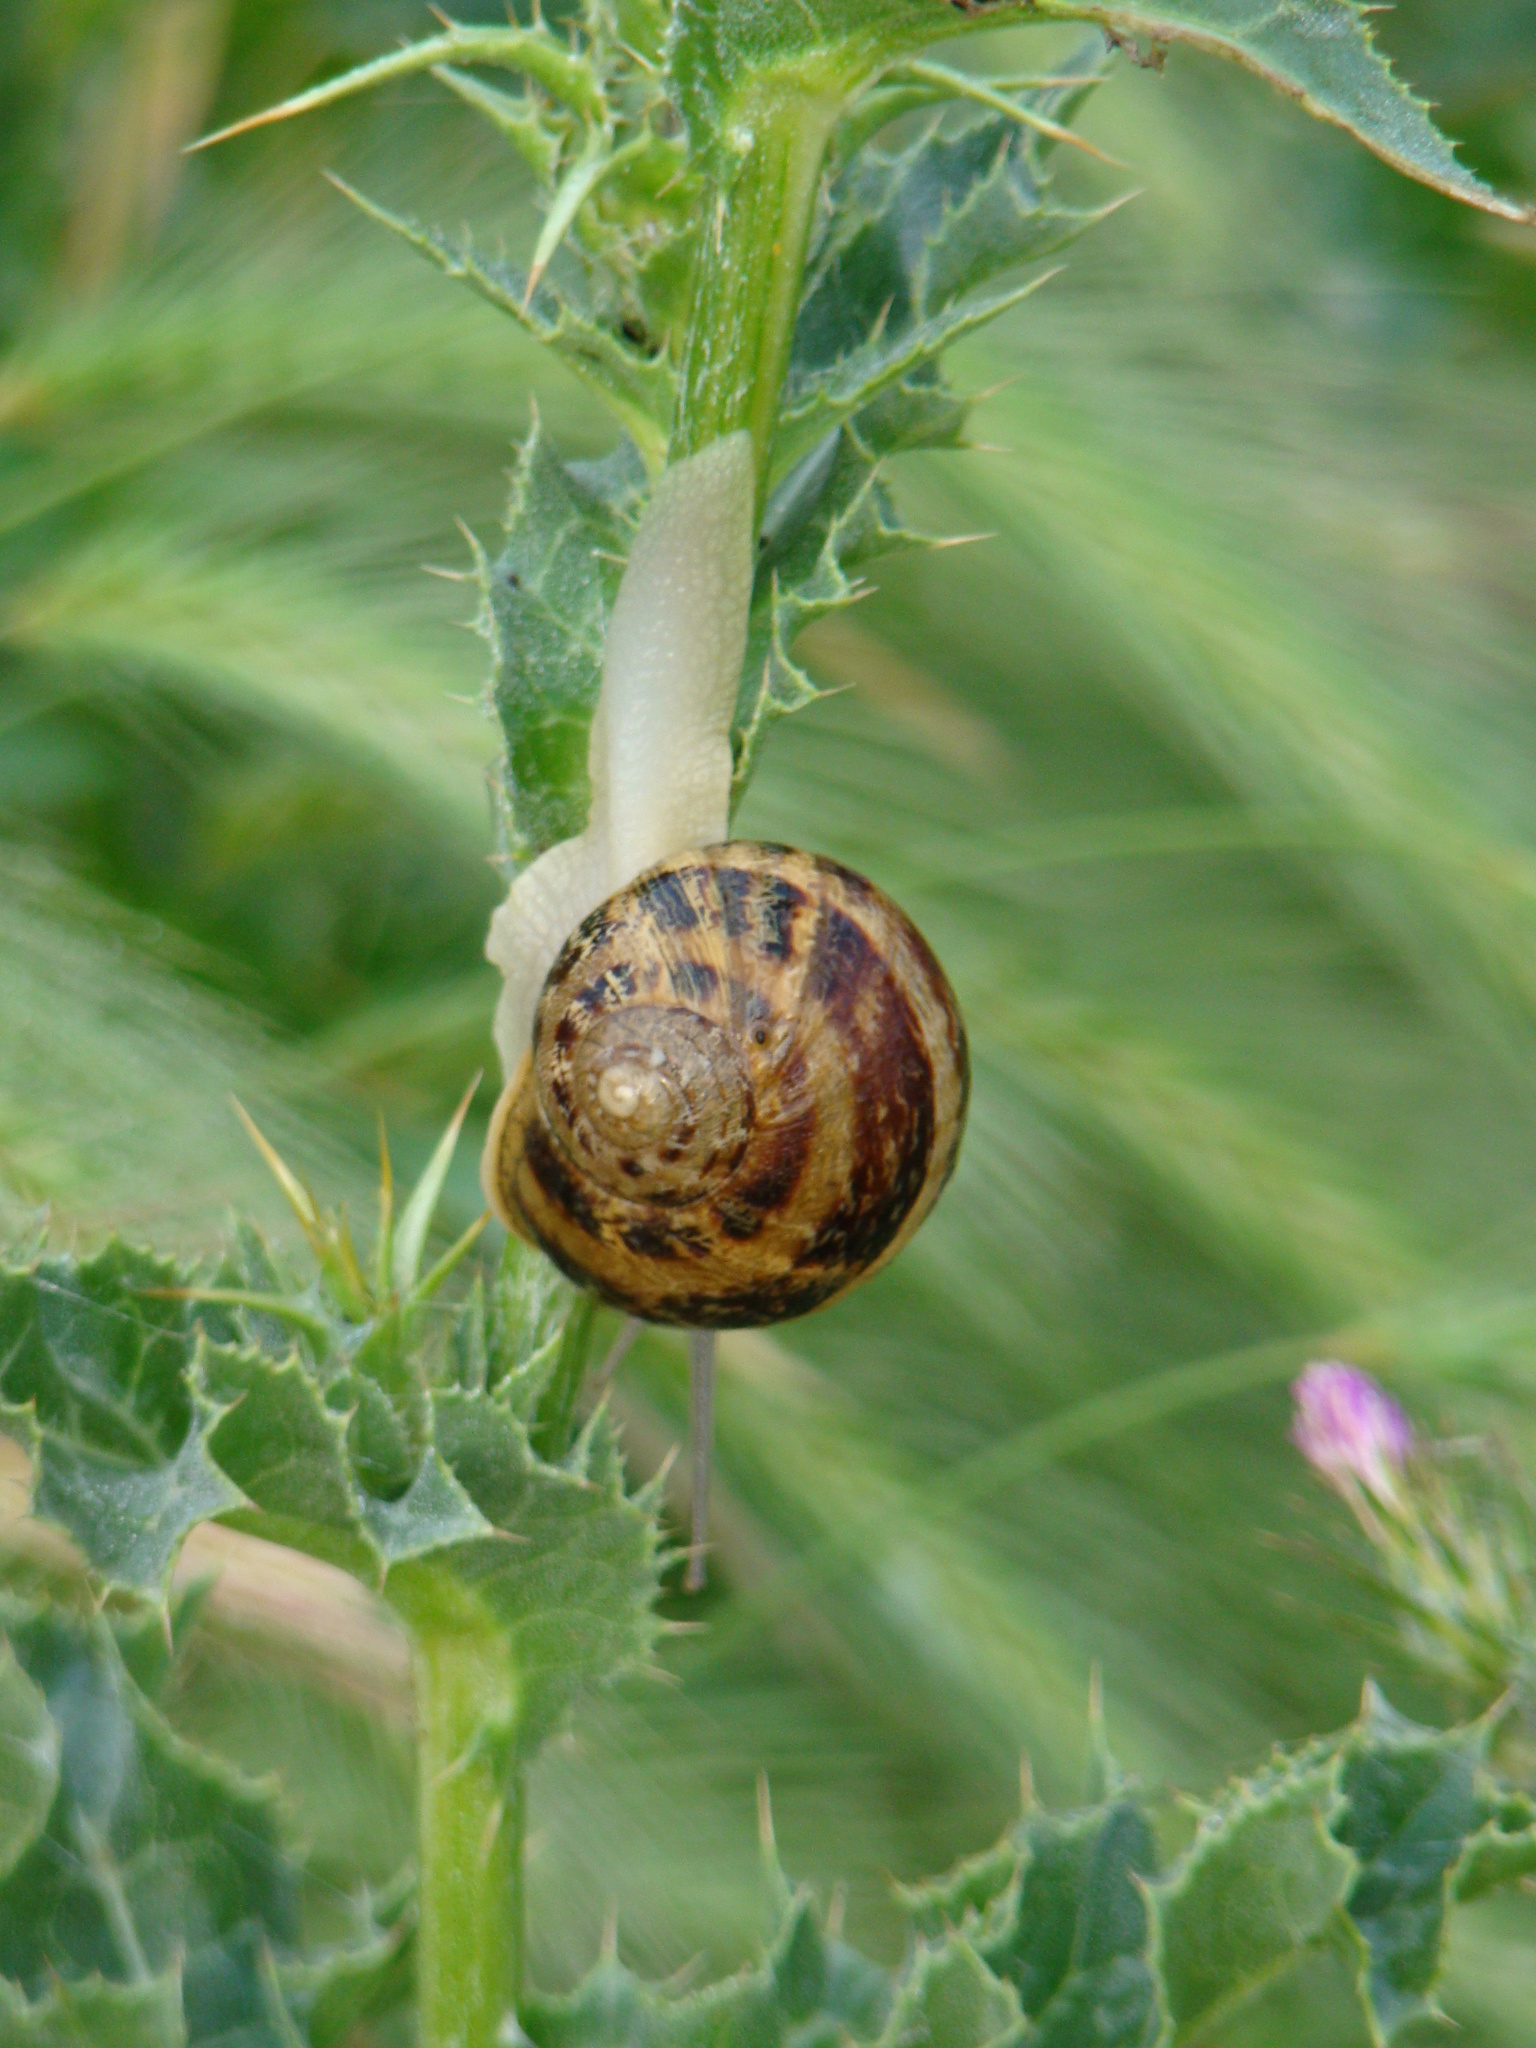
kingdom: Animalia
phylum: Mollusca
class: Gastropoda
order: Stylommatophora
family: Helicidae
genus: Cornu
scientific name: Cornu aspersum
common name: Brown garden snail
